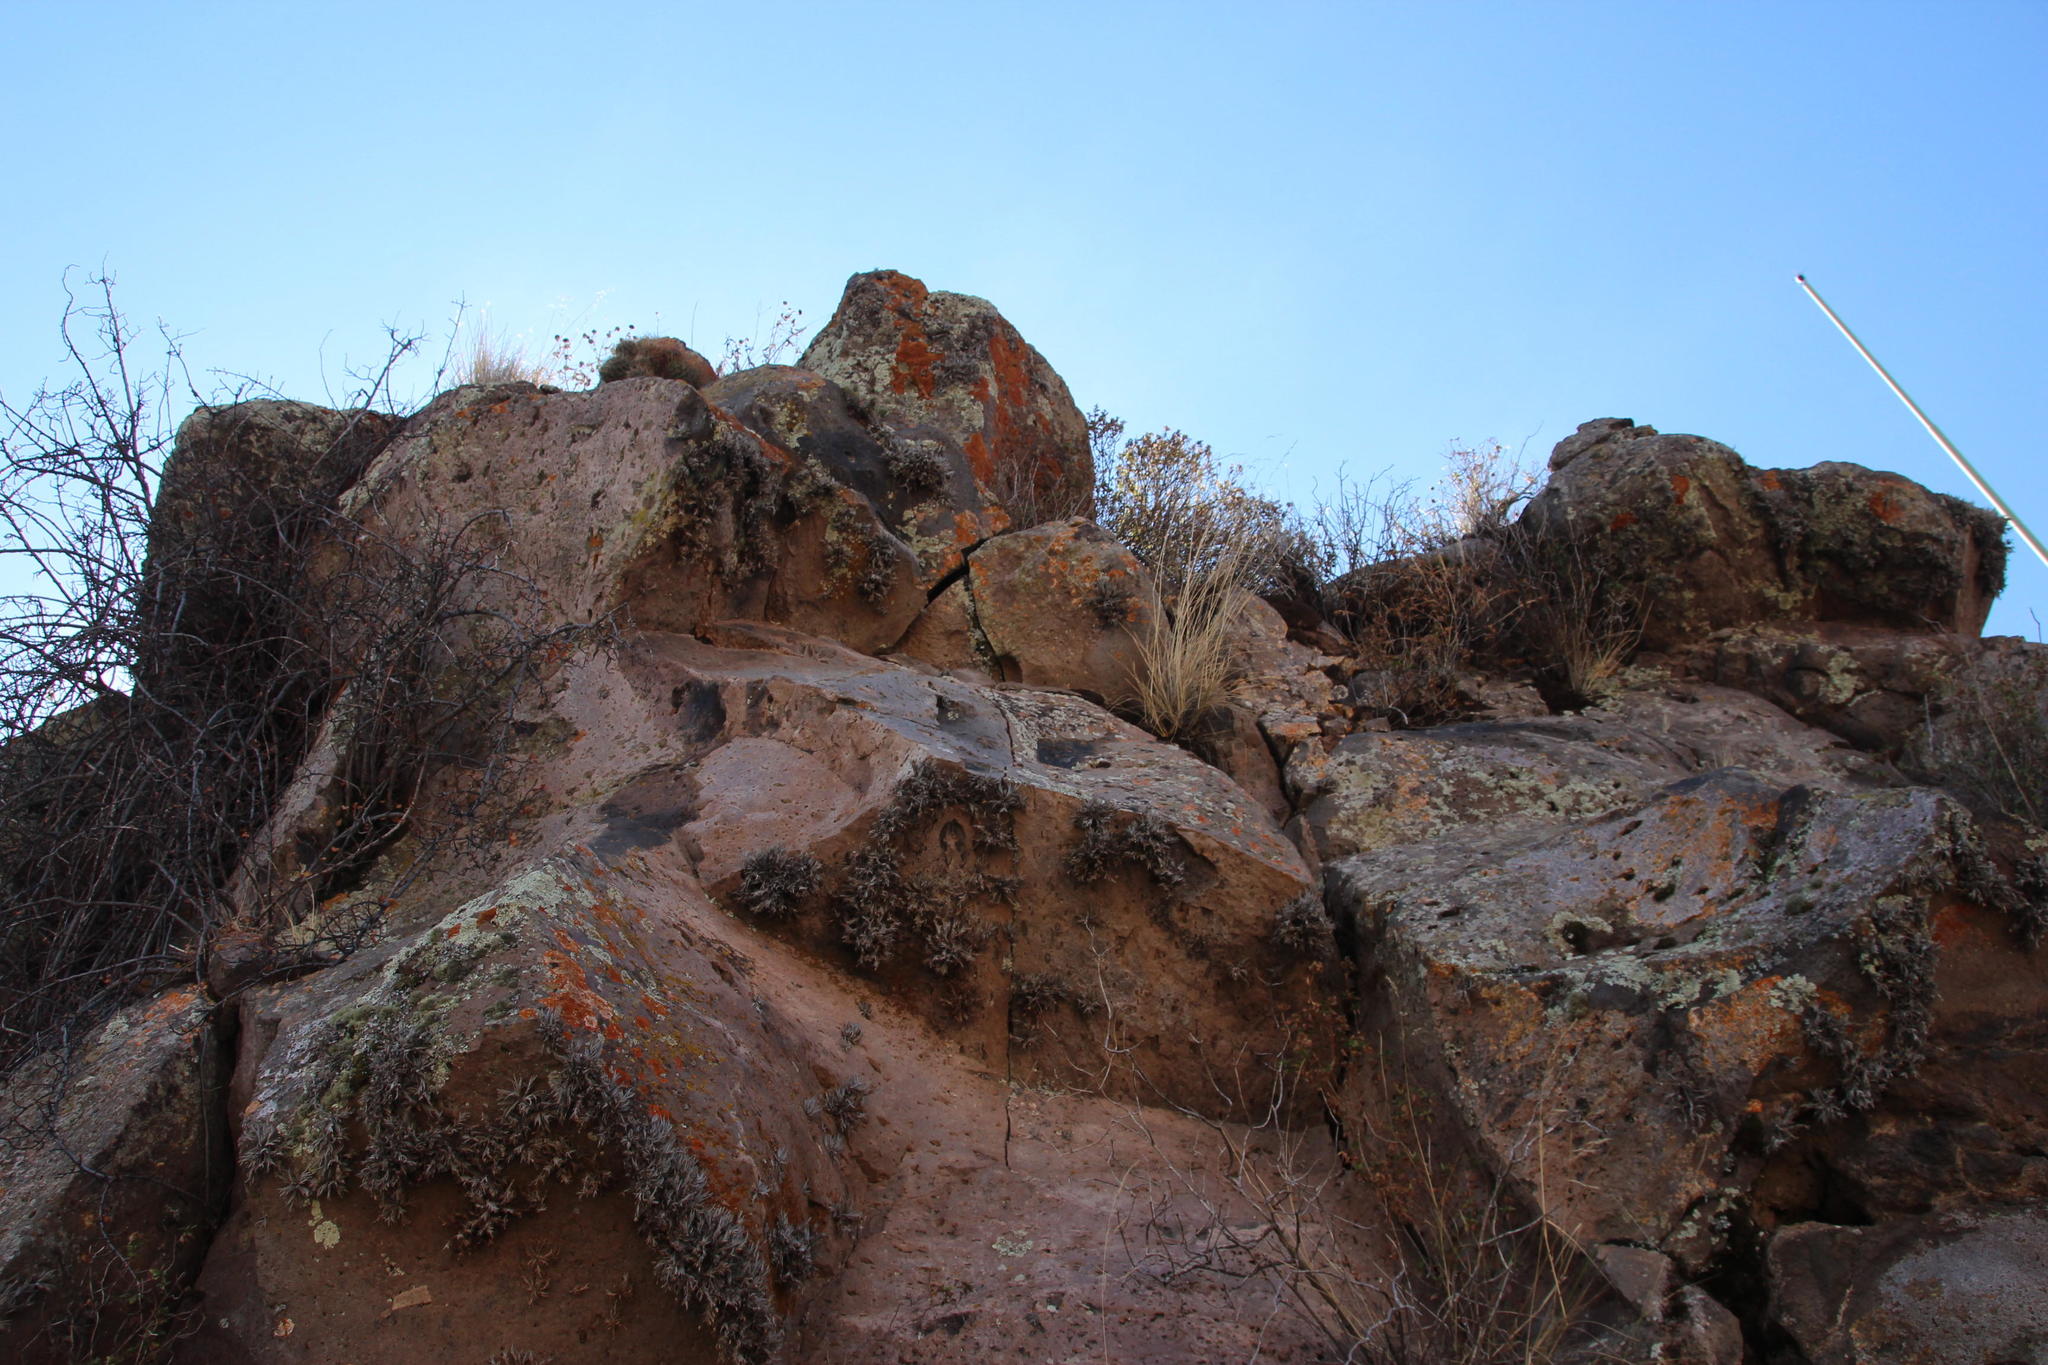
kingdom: Plantae
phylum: Tracheophyta
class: Liliopsida
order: Poales
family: Bromeliaceae
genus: Tillandsia
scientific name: Tillandsia capillaris
